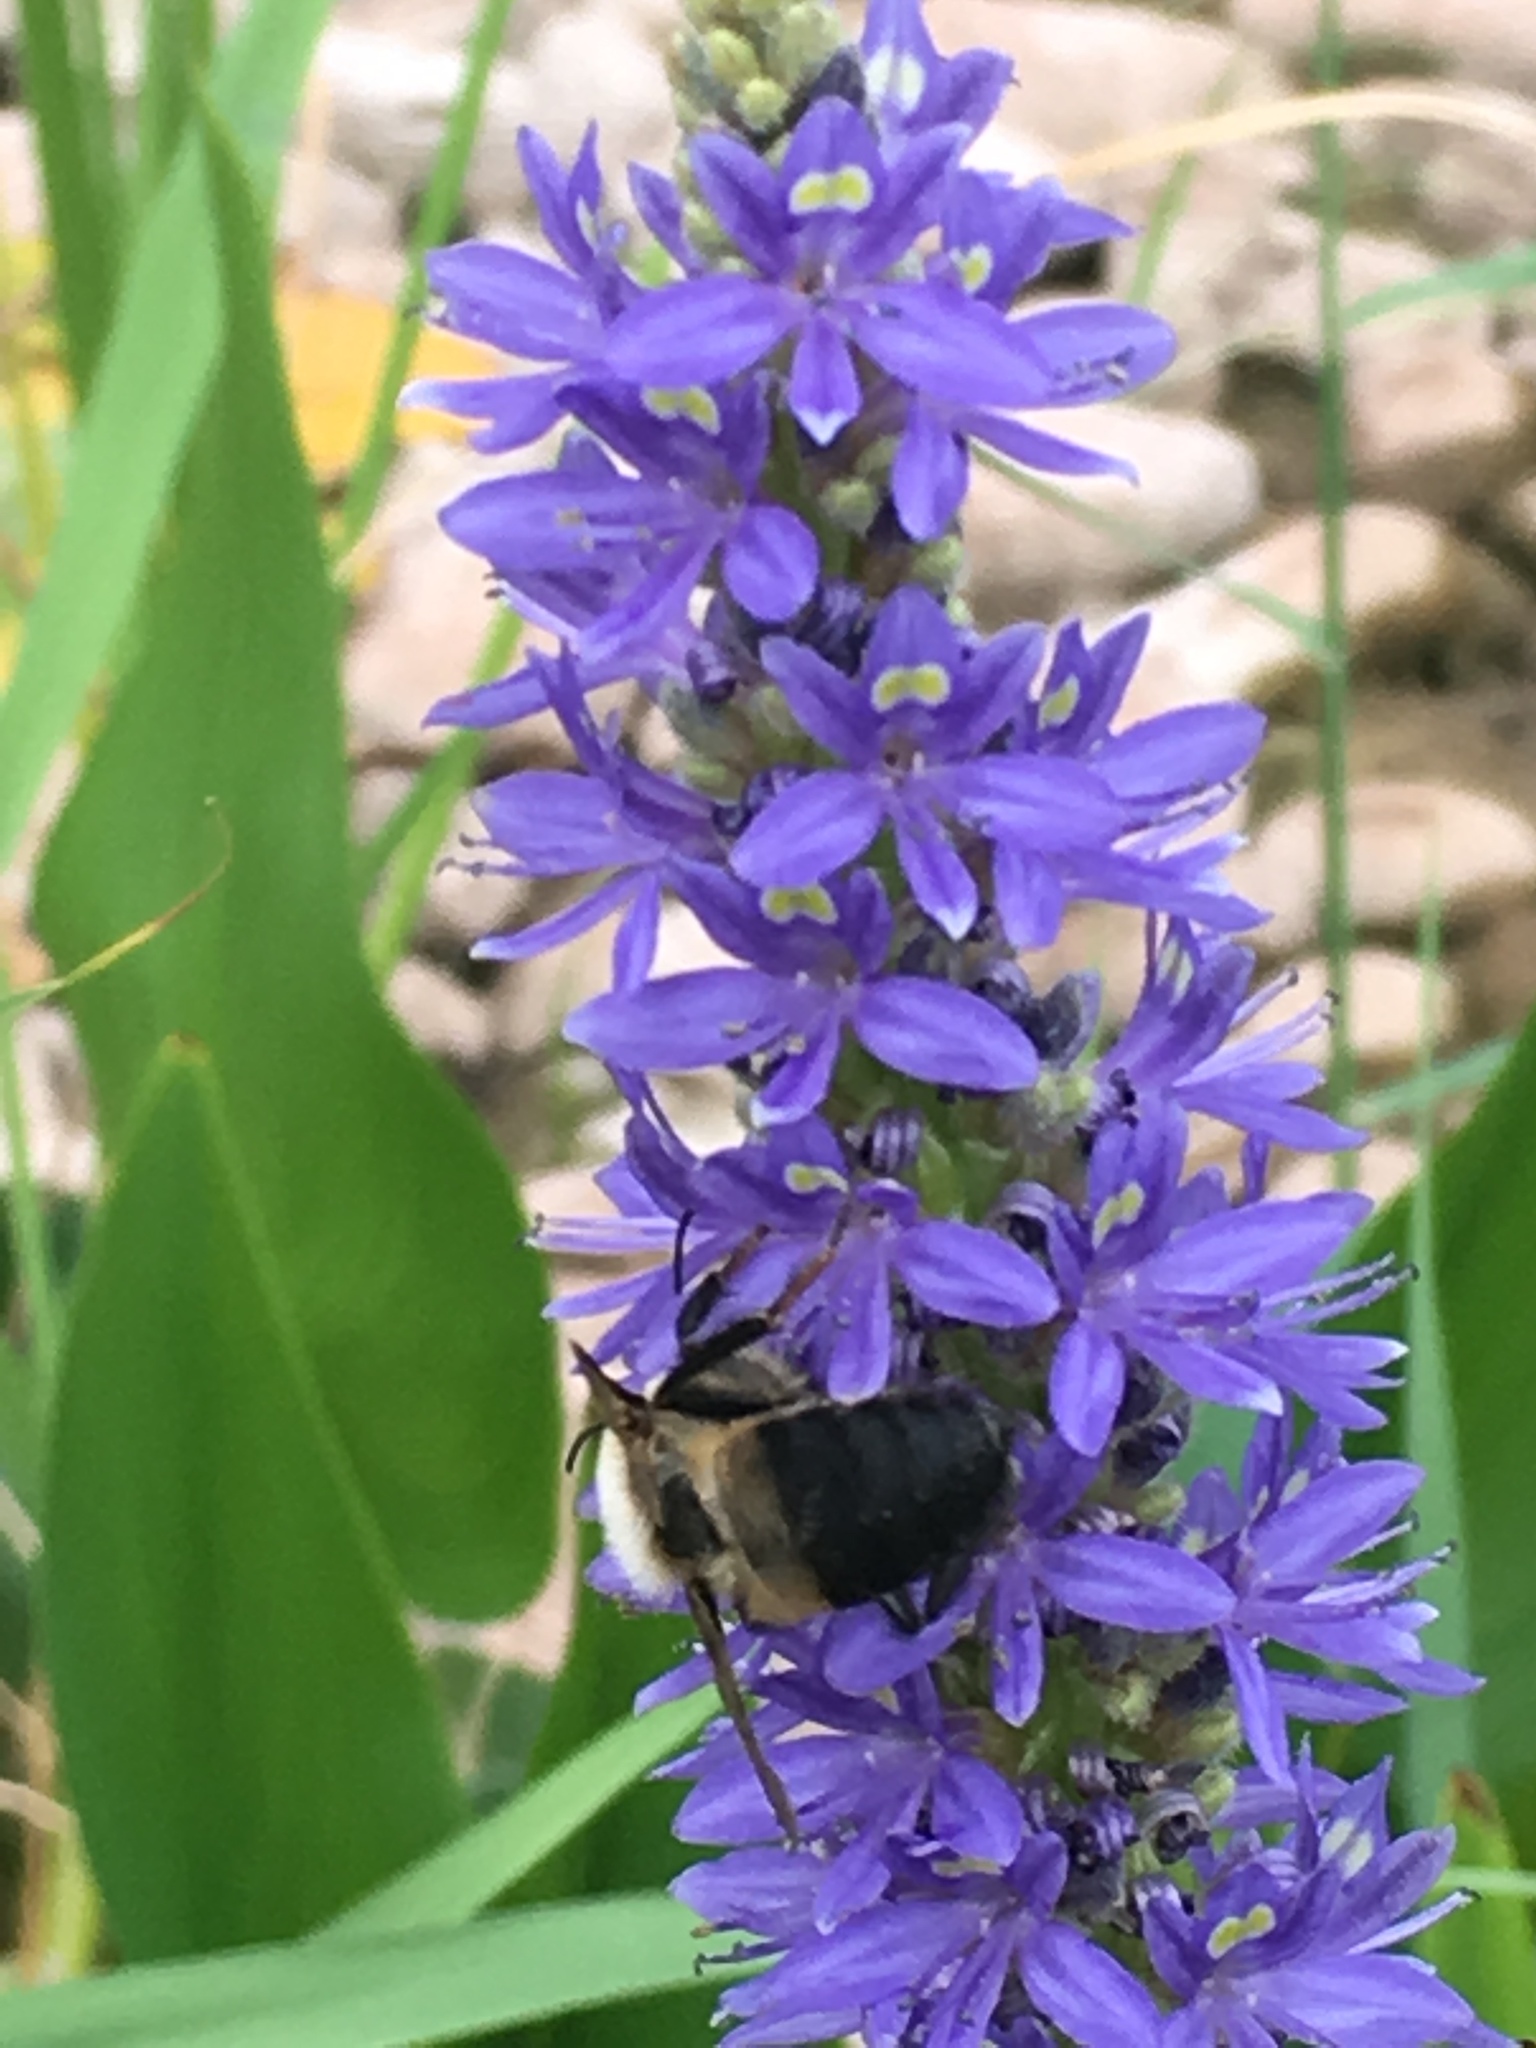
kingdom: Animalia
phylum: Arthropoda
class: Insecta
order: Hymenoptera
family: Apidae
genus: Bombus
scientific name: Bombus griseocollis
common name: Brown-belted bumble bee
